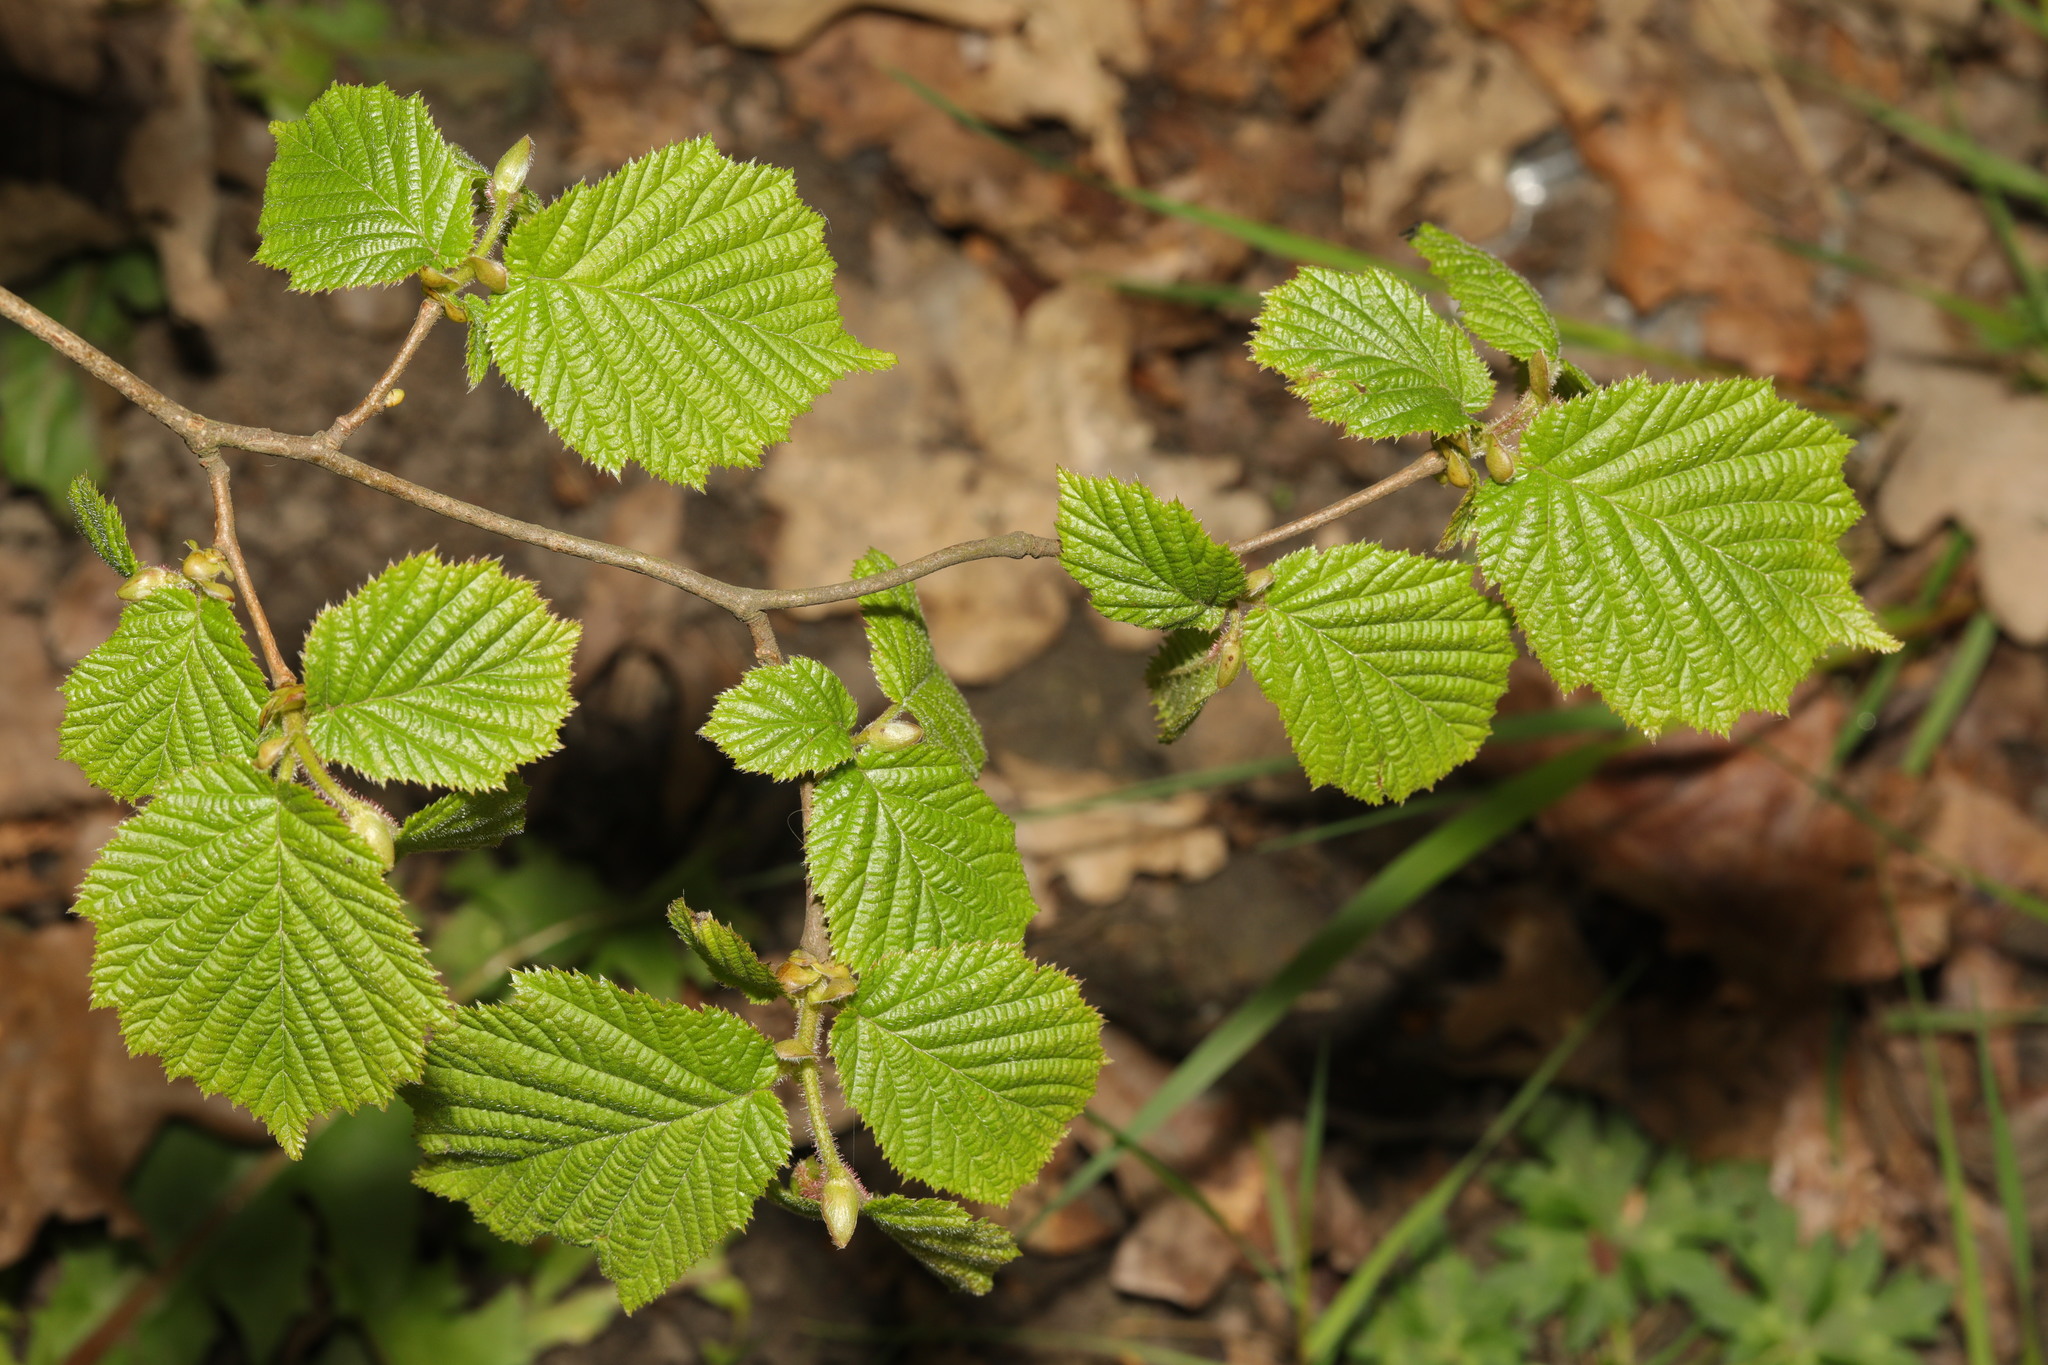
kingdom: Plantae
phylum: Tracheophyta
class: Magnoliopsida
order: Fagales
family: Betulaceae
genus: Corylus
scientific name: Corylus avellana
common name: European hazel
